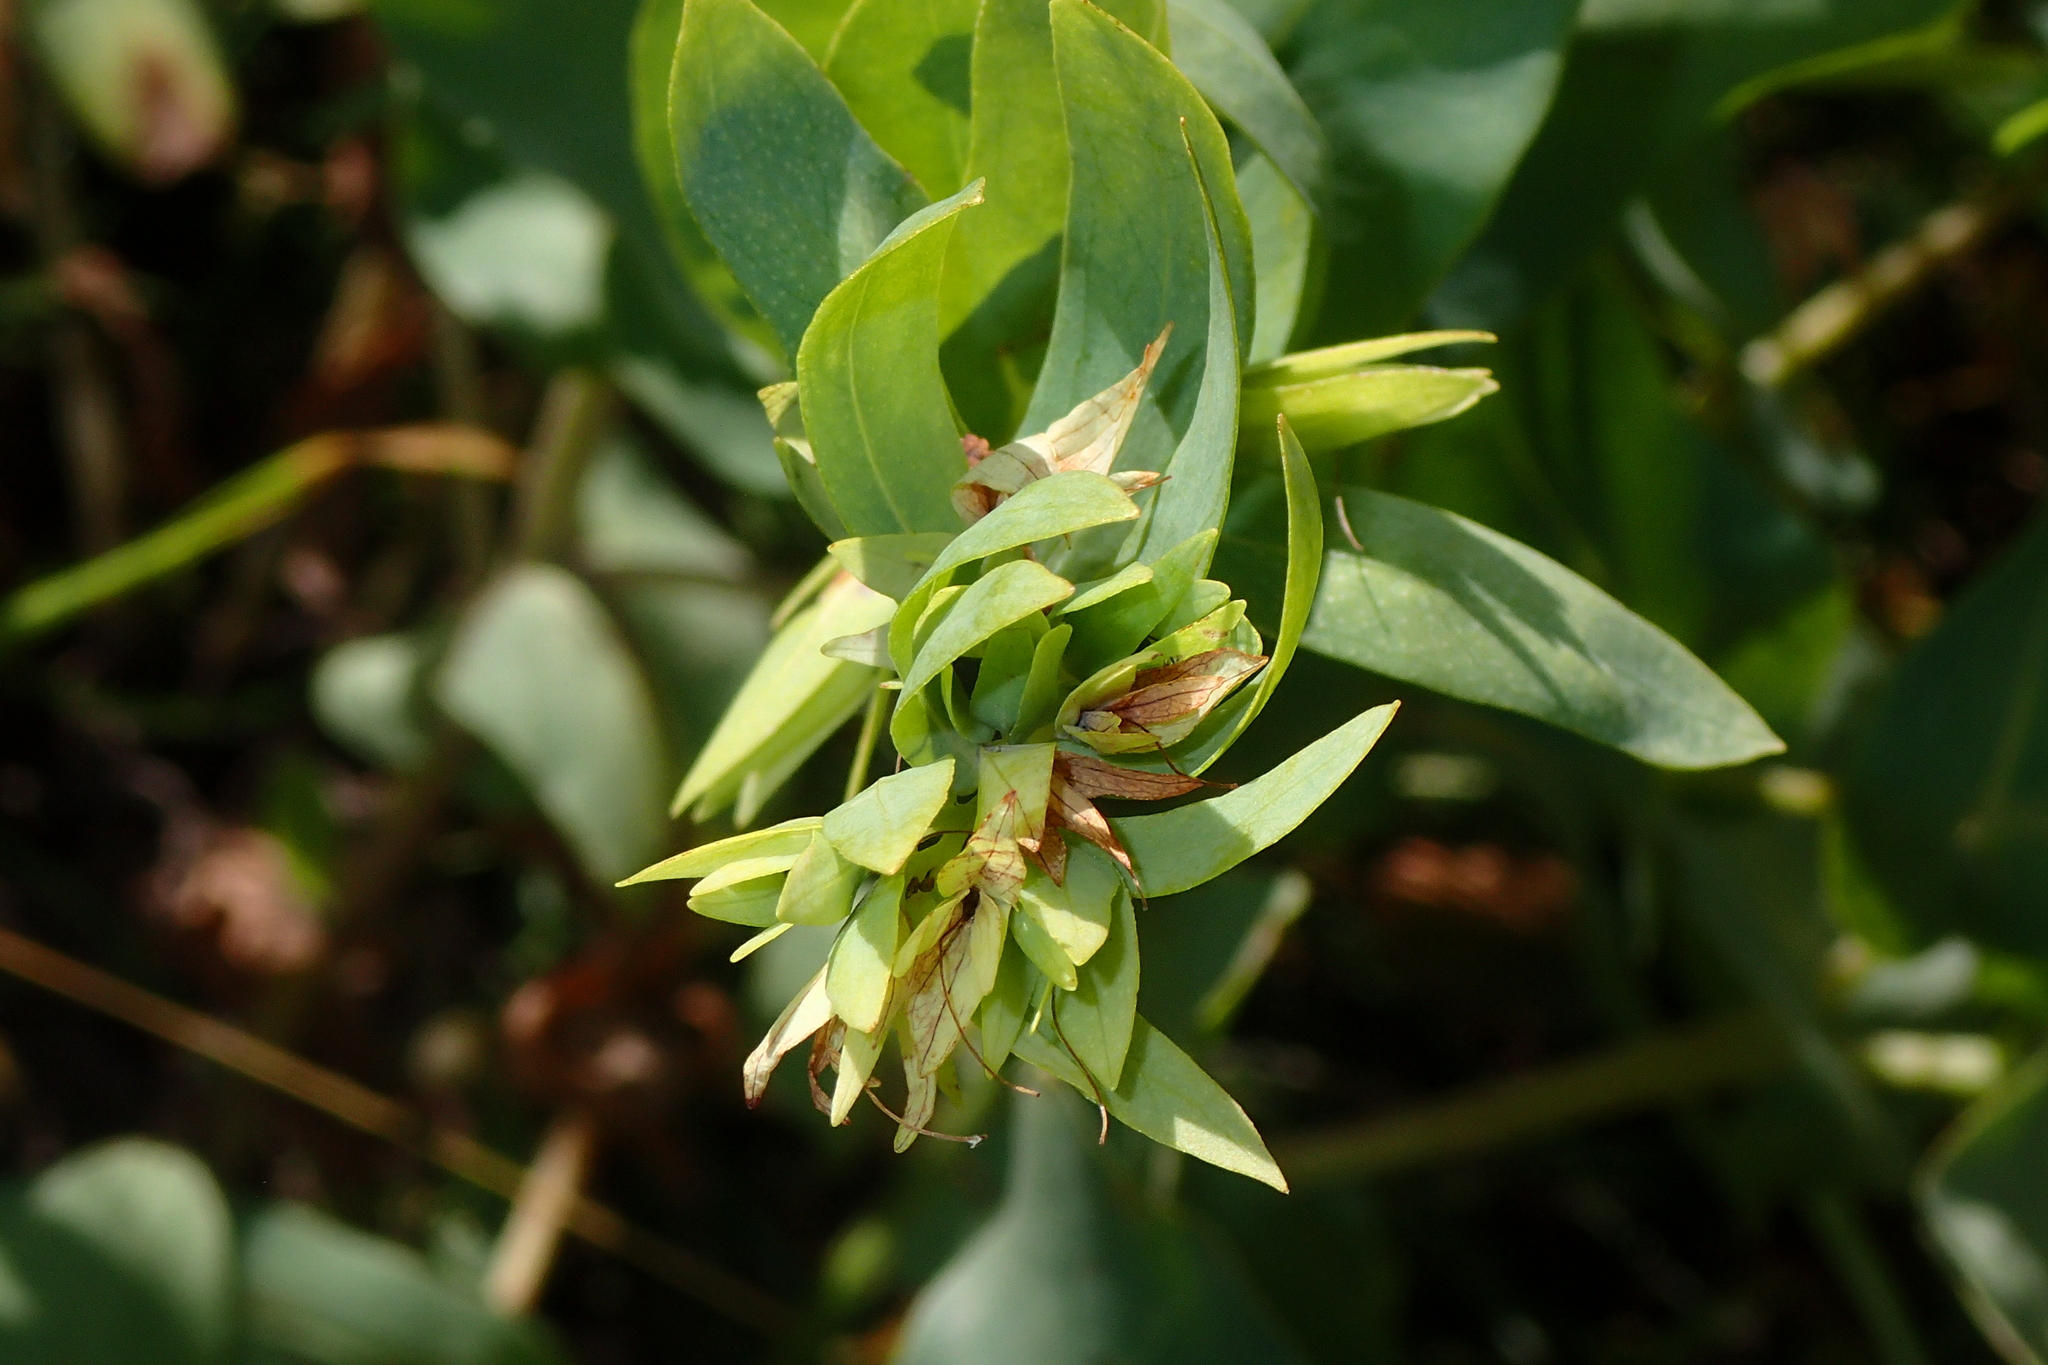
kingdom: Plantae
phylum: Tracheophyta
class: Magnoliopsida
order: Boraginales
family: Boraginaceae
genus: Cerinthe
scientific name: Cerinthe minor
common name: Lesser honeywort
